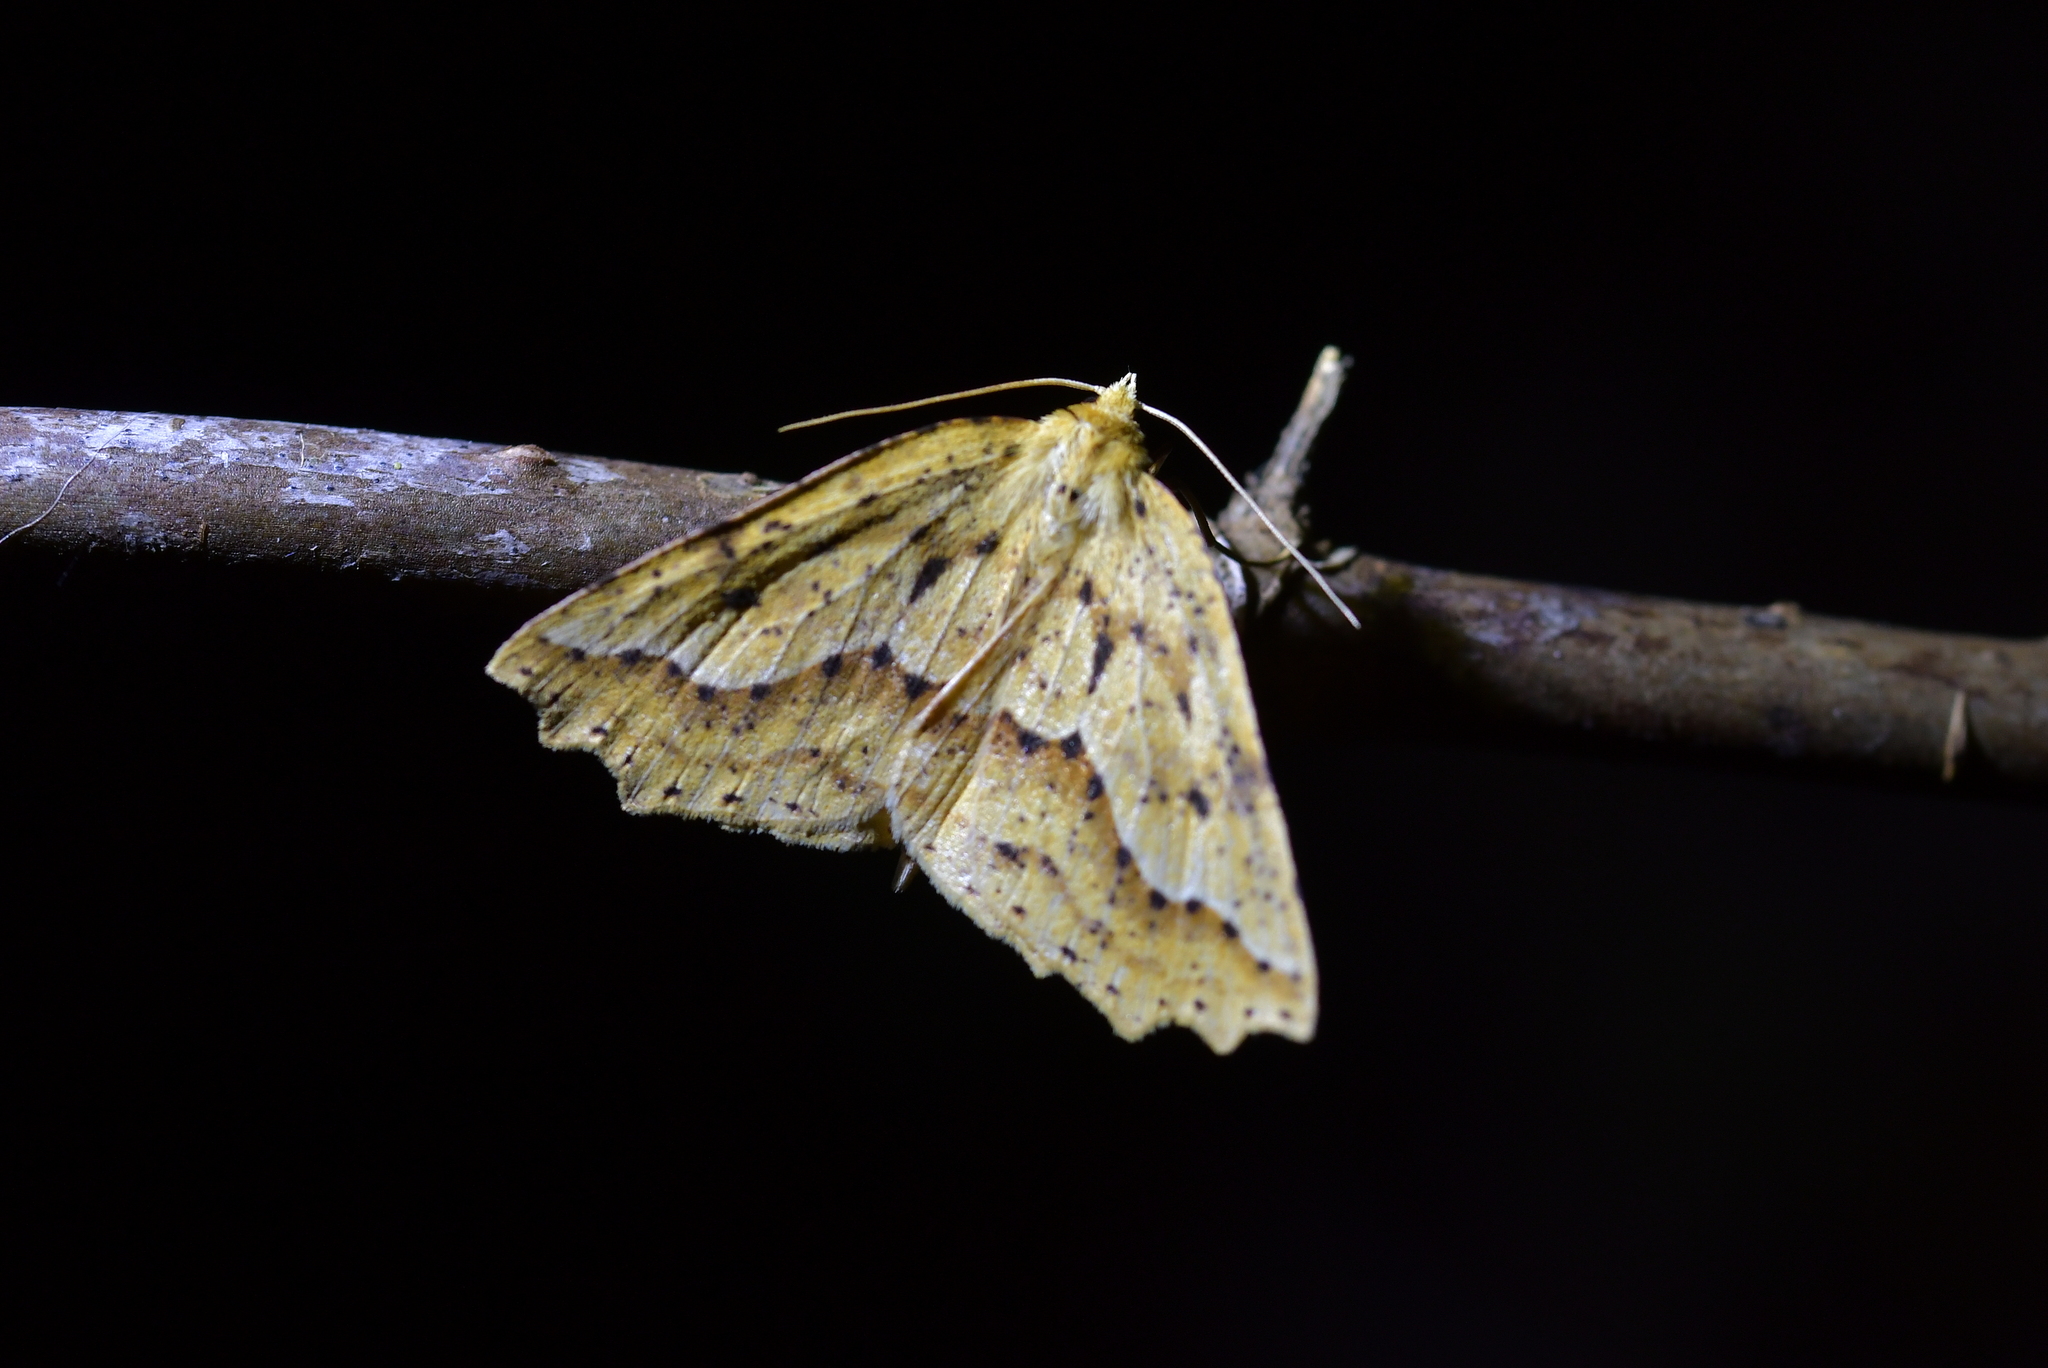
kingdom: Animalia
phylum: Arthropoda
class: Insecta
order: Lepidoptera
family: Geometridae
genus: Ischalis
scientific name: Ischalis variabilis
